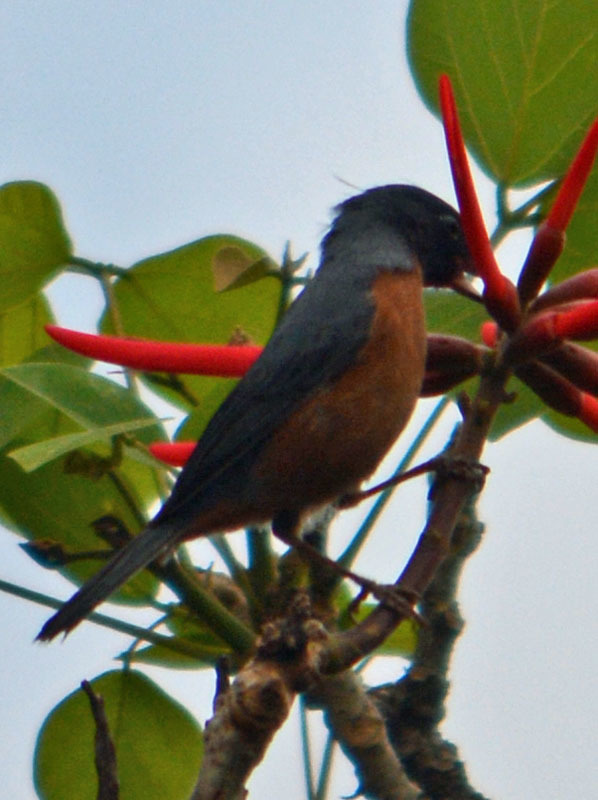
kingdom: Animalia
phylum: Chordata
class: Aves
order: Passeriformes
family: Thraupidae
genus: Diglossa
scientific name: Diglossa baritula
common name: Cinnamon-bellied flowerpiercer
